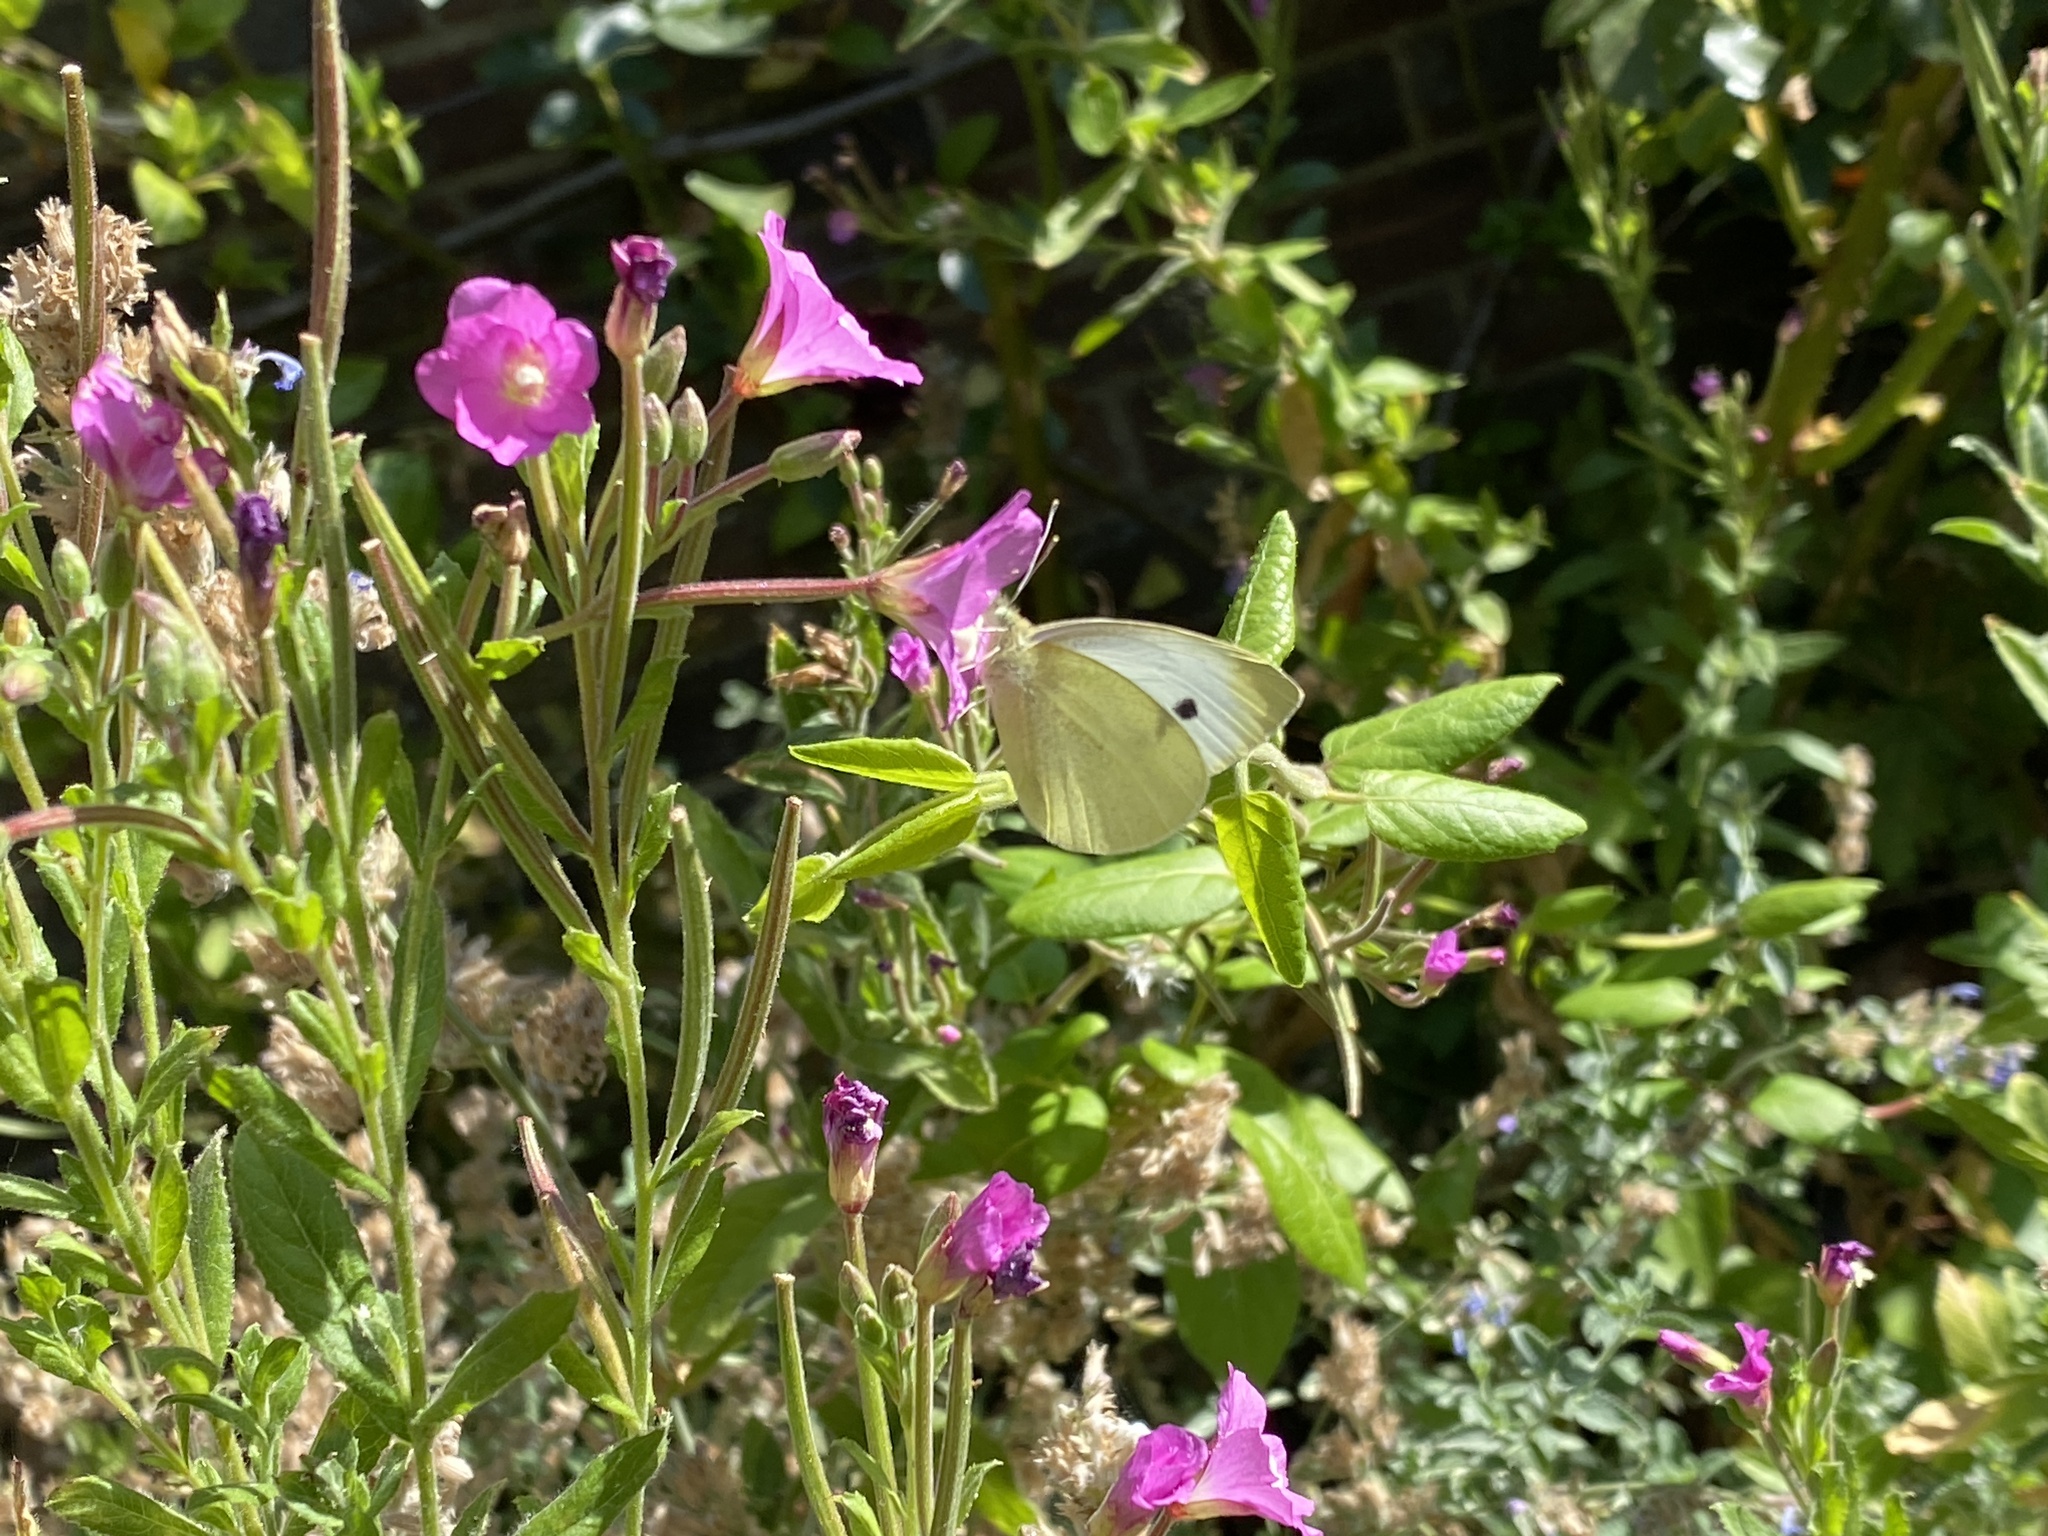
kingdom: Animalia
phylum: Arthropoda
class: Insecta
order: Lepidoptera
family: Pieridae
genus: Pieris
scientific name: Pieris rapae
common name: Small white
